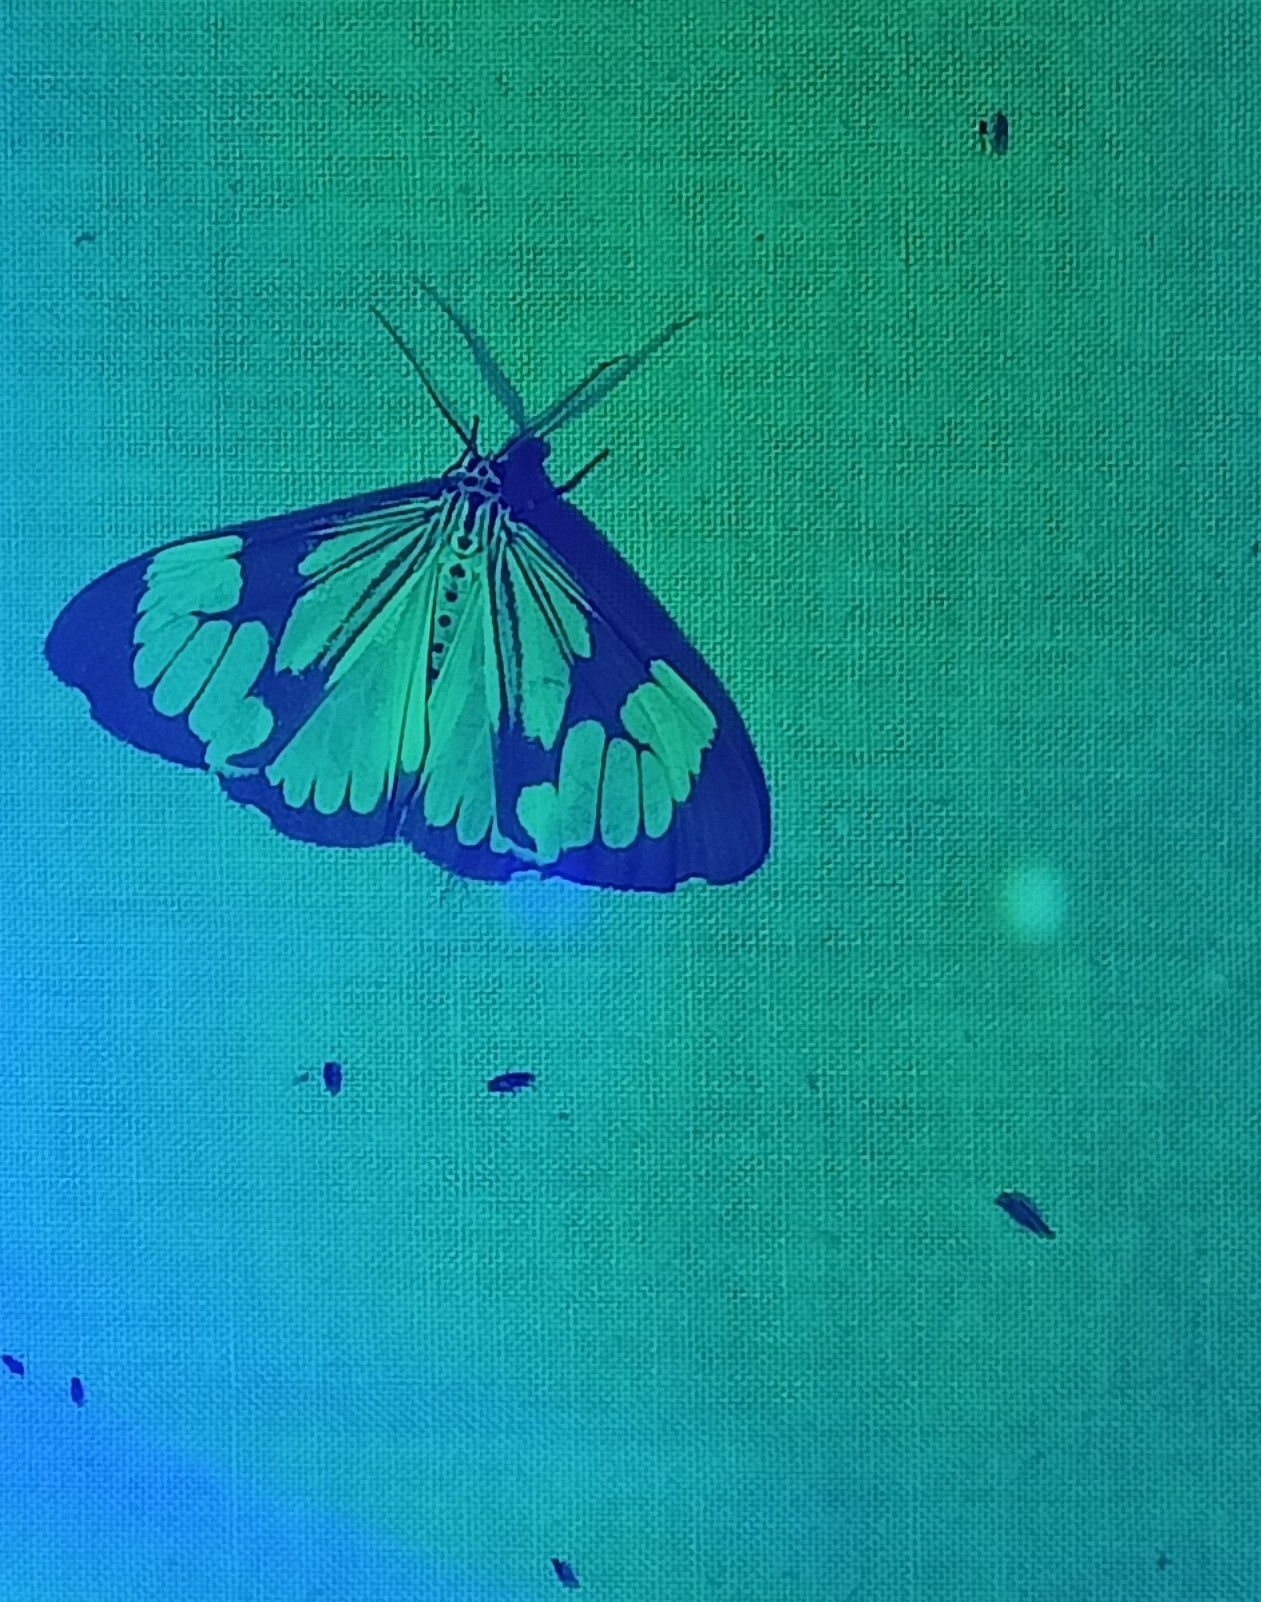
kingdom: Animalia
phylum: Arthropoda
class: Insecta
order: Lepidoptera
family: Erebidae
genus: Nyctemera
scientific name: Nyctemera coleta
